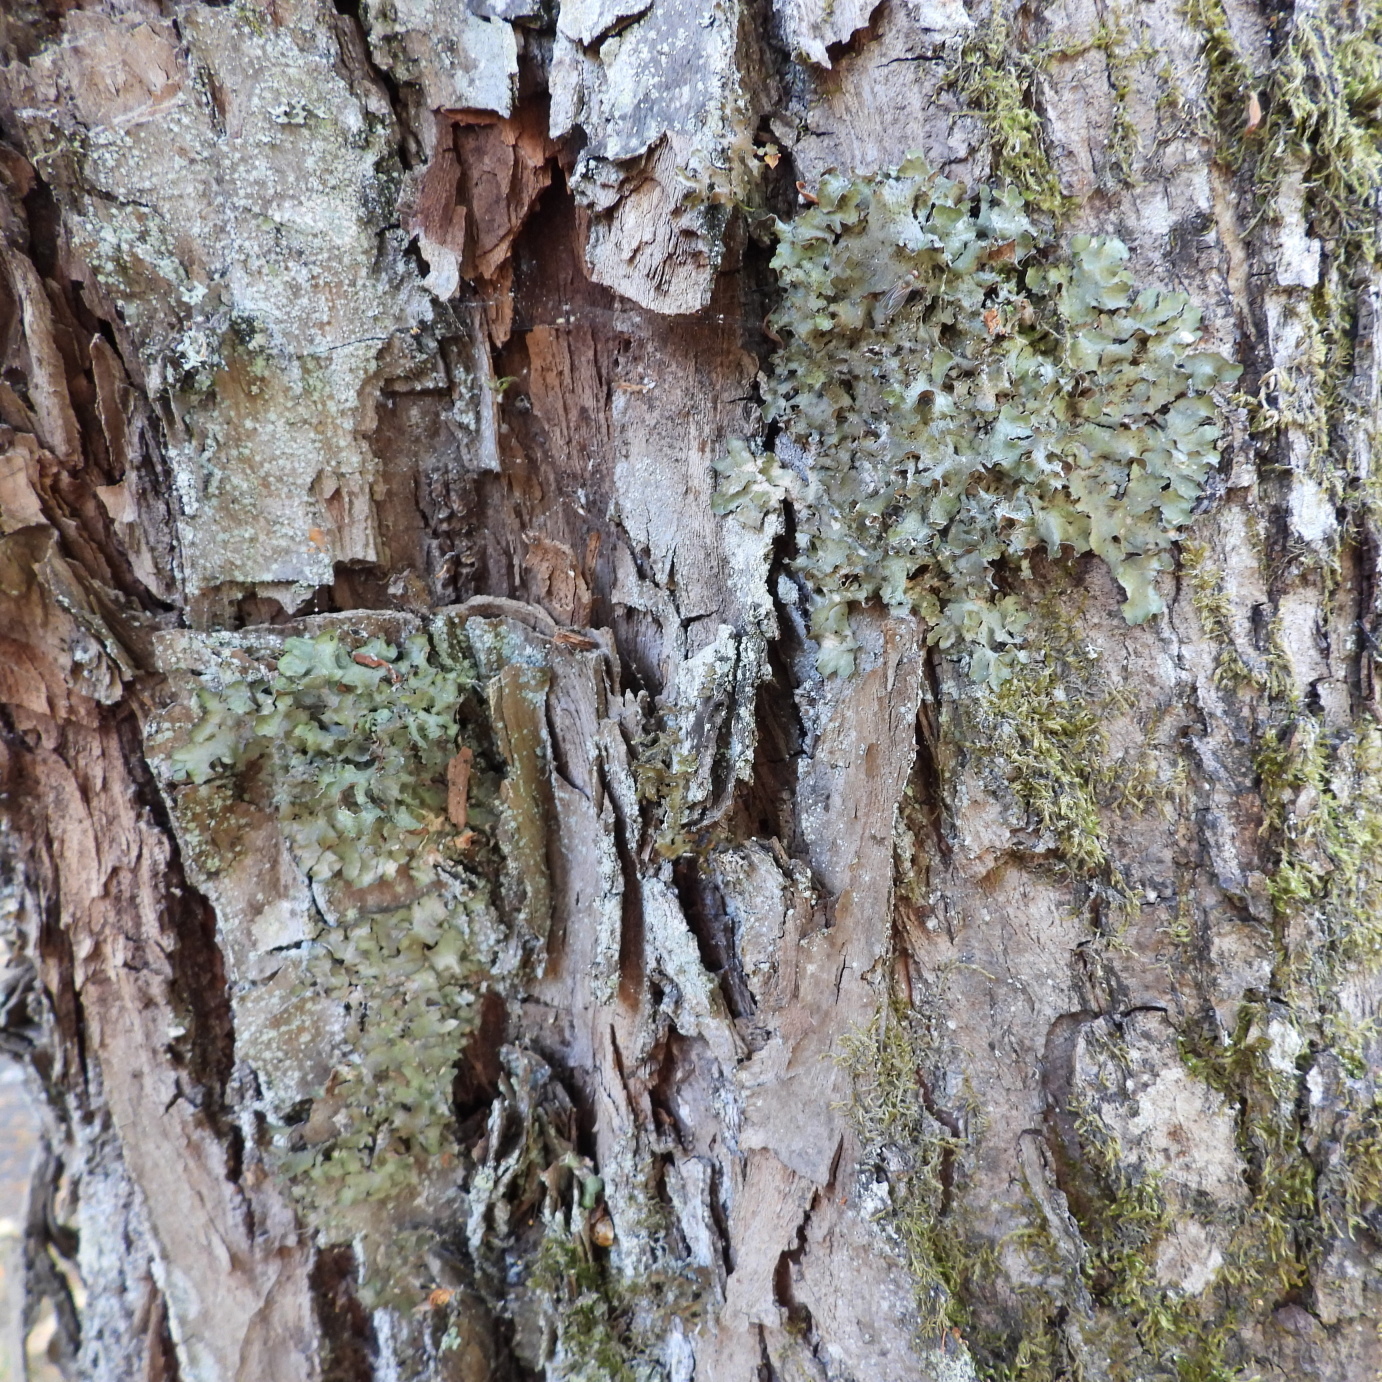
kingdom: Fungi
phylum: Ascomycota
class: Lecanoromycetes
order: Lecanorales
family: Parmeliaceae
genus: Pleurosticta
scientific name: Pleurosticta acetabulum
